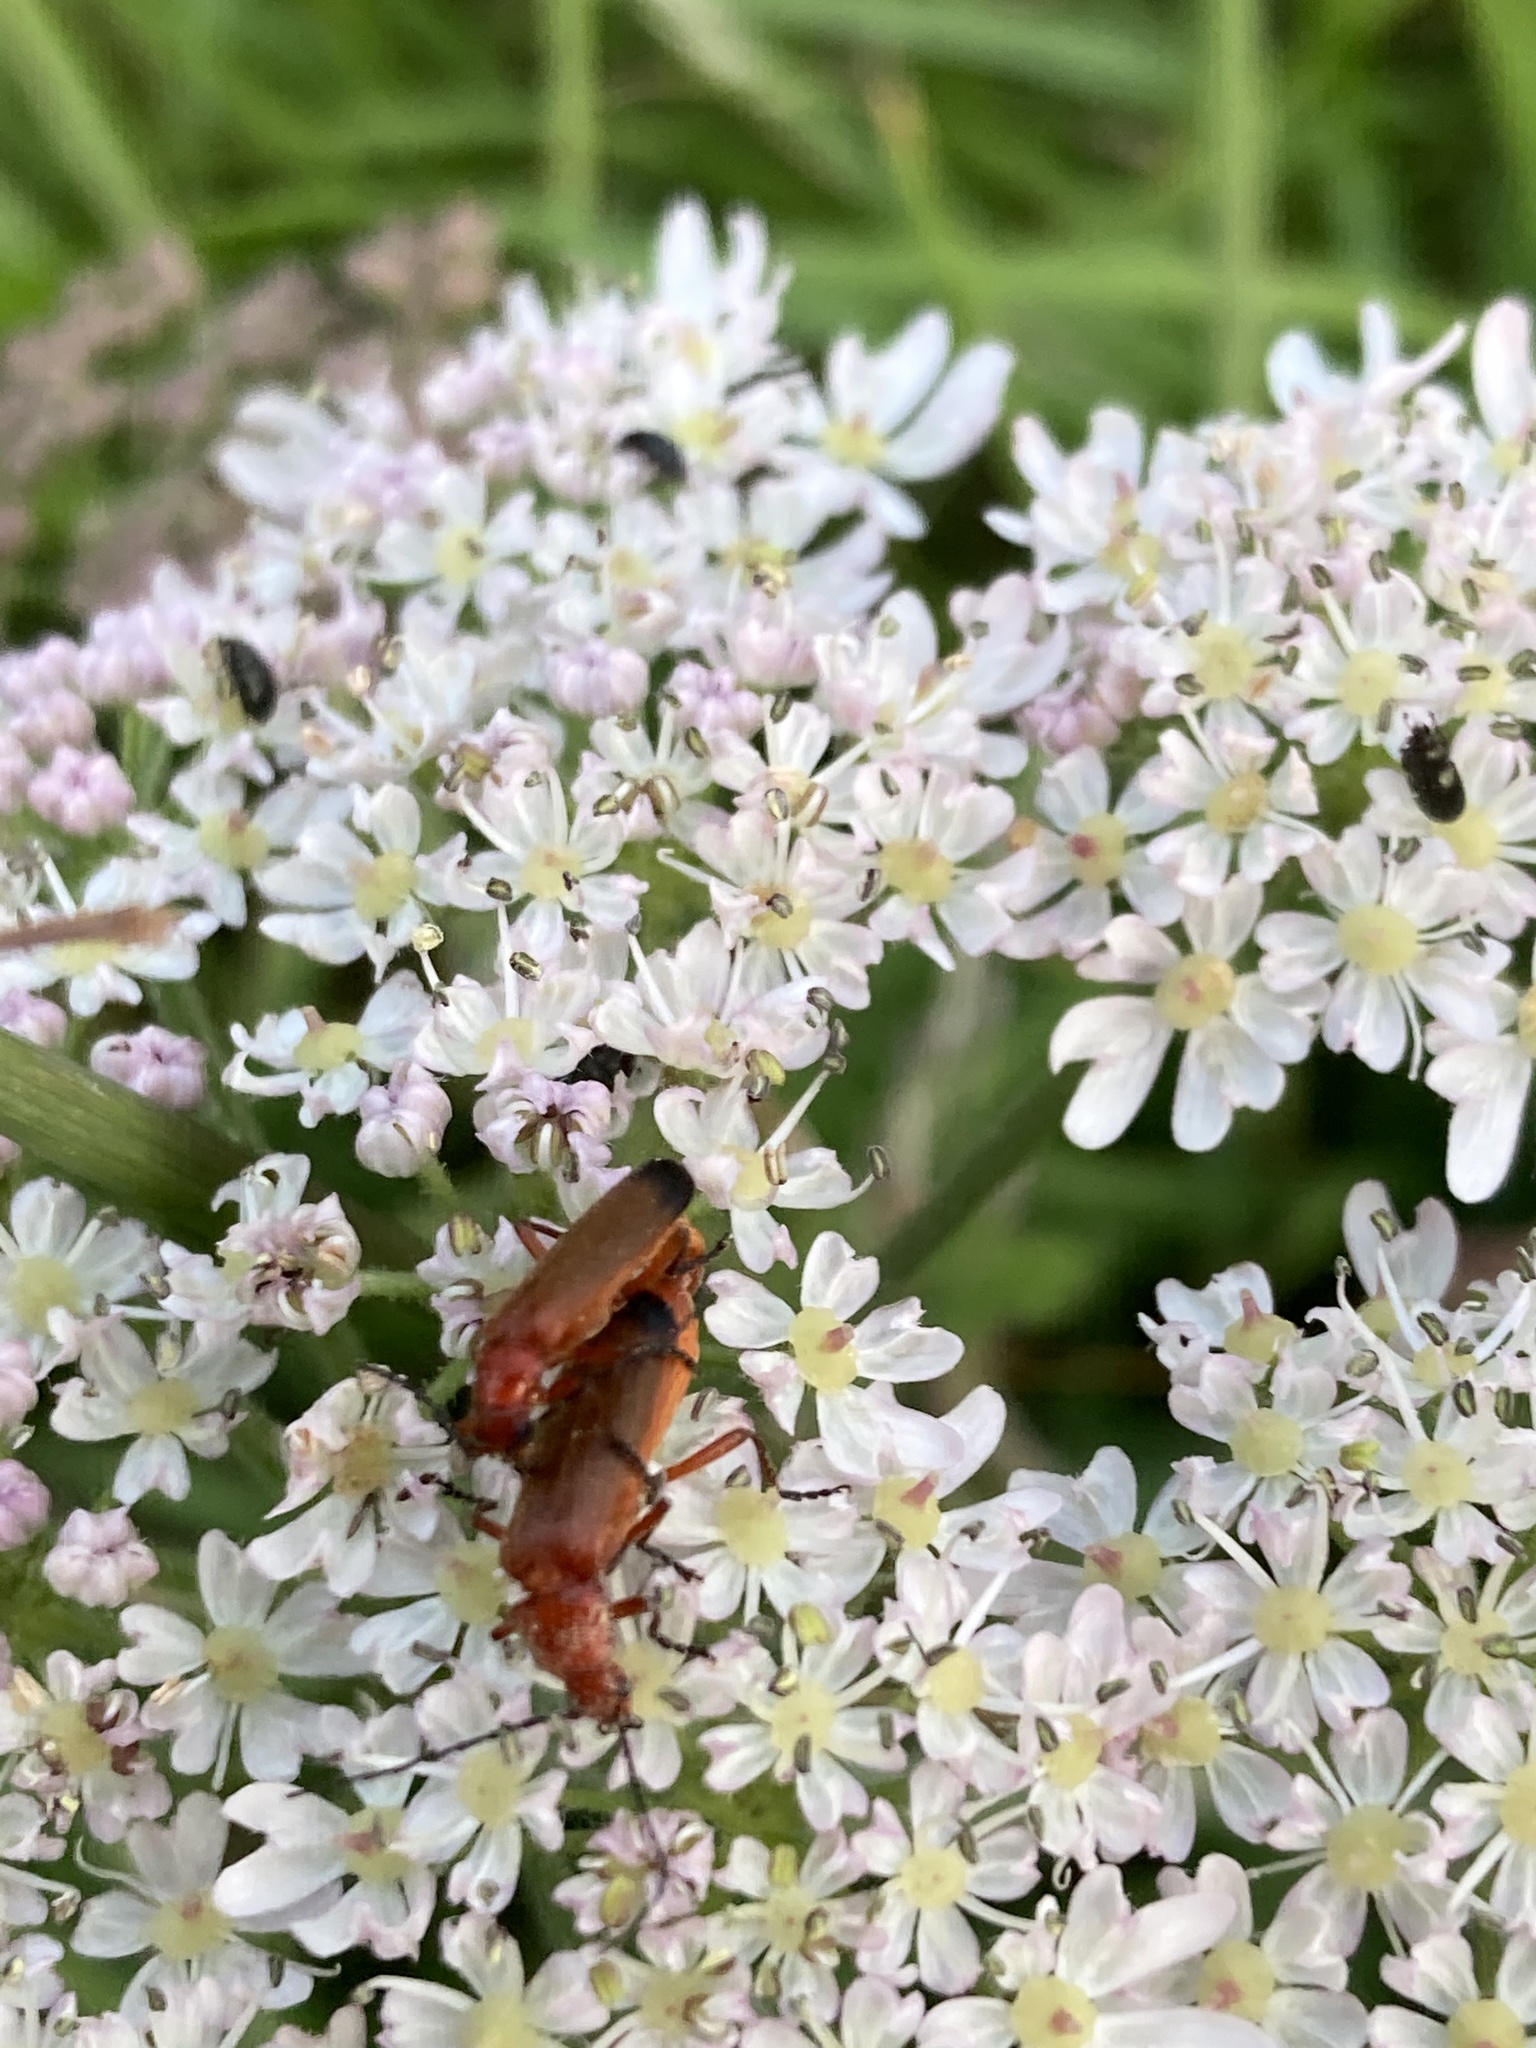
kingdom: Animalia
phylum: Arthropoda
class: Insecta
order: Coleoptera
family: Cantharidae
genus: Rhagonycha
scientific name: Rhagonycha fulva
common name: Common red soldier beetle
